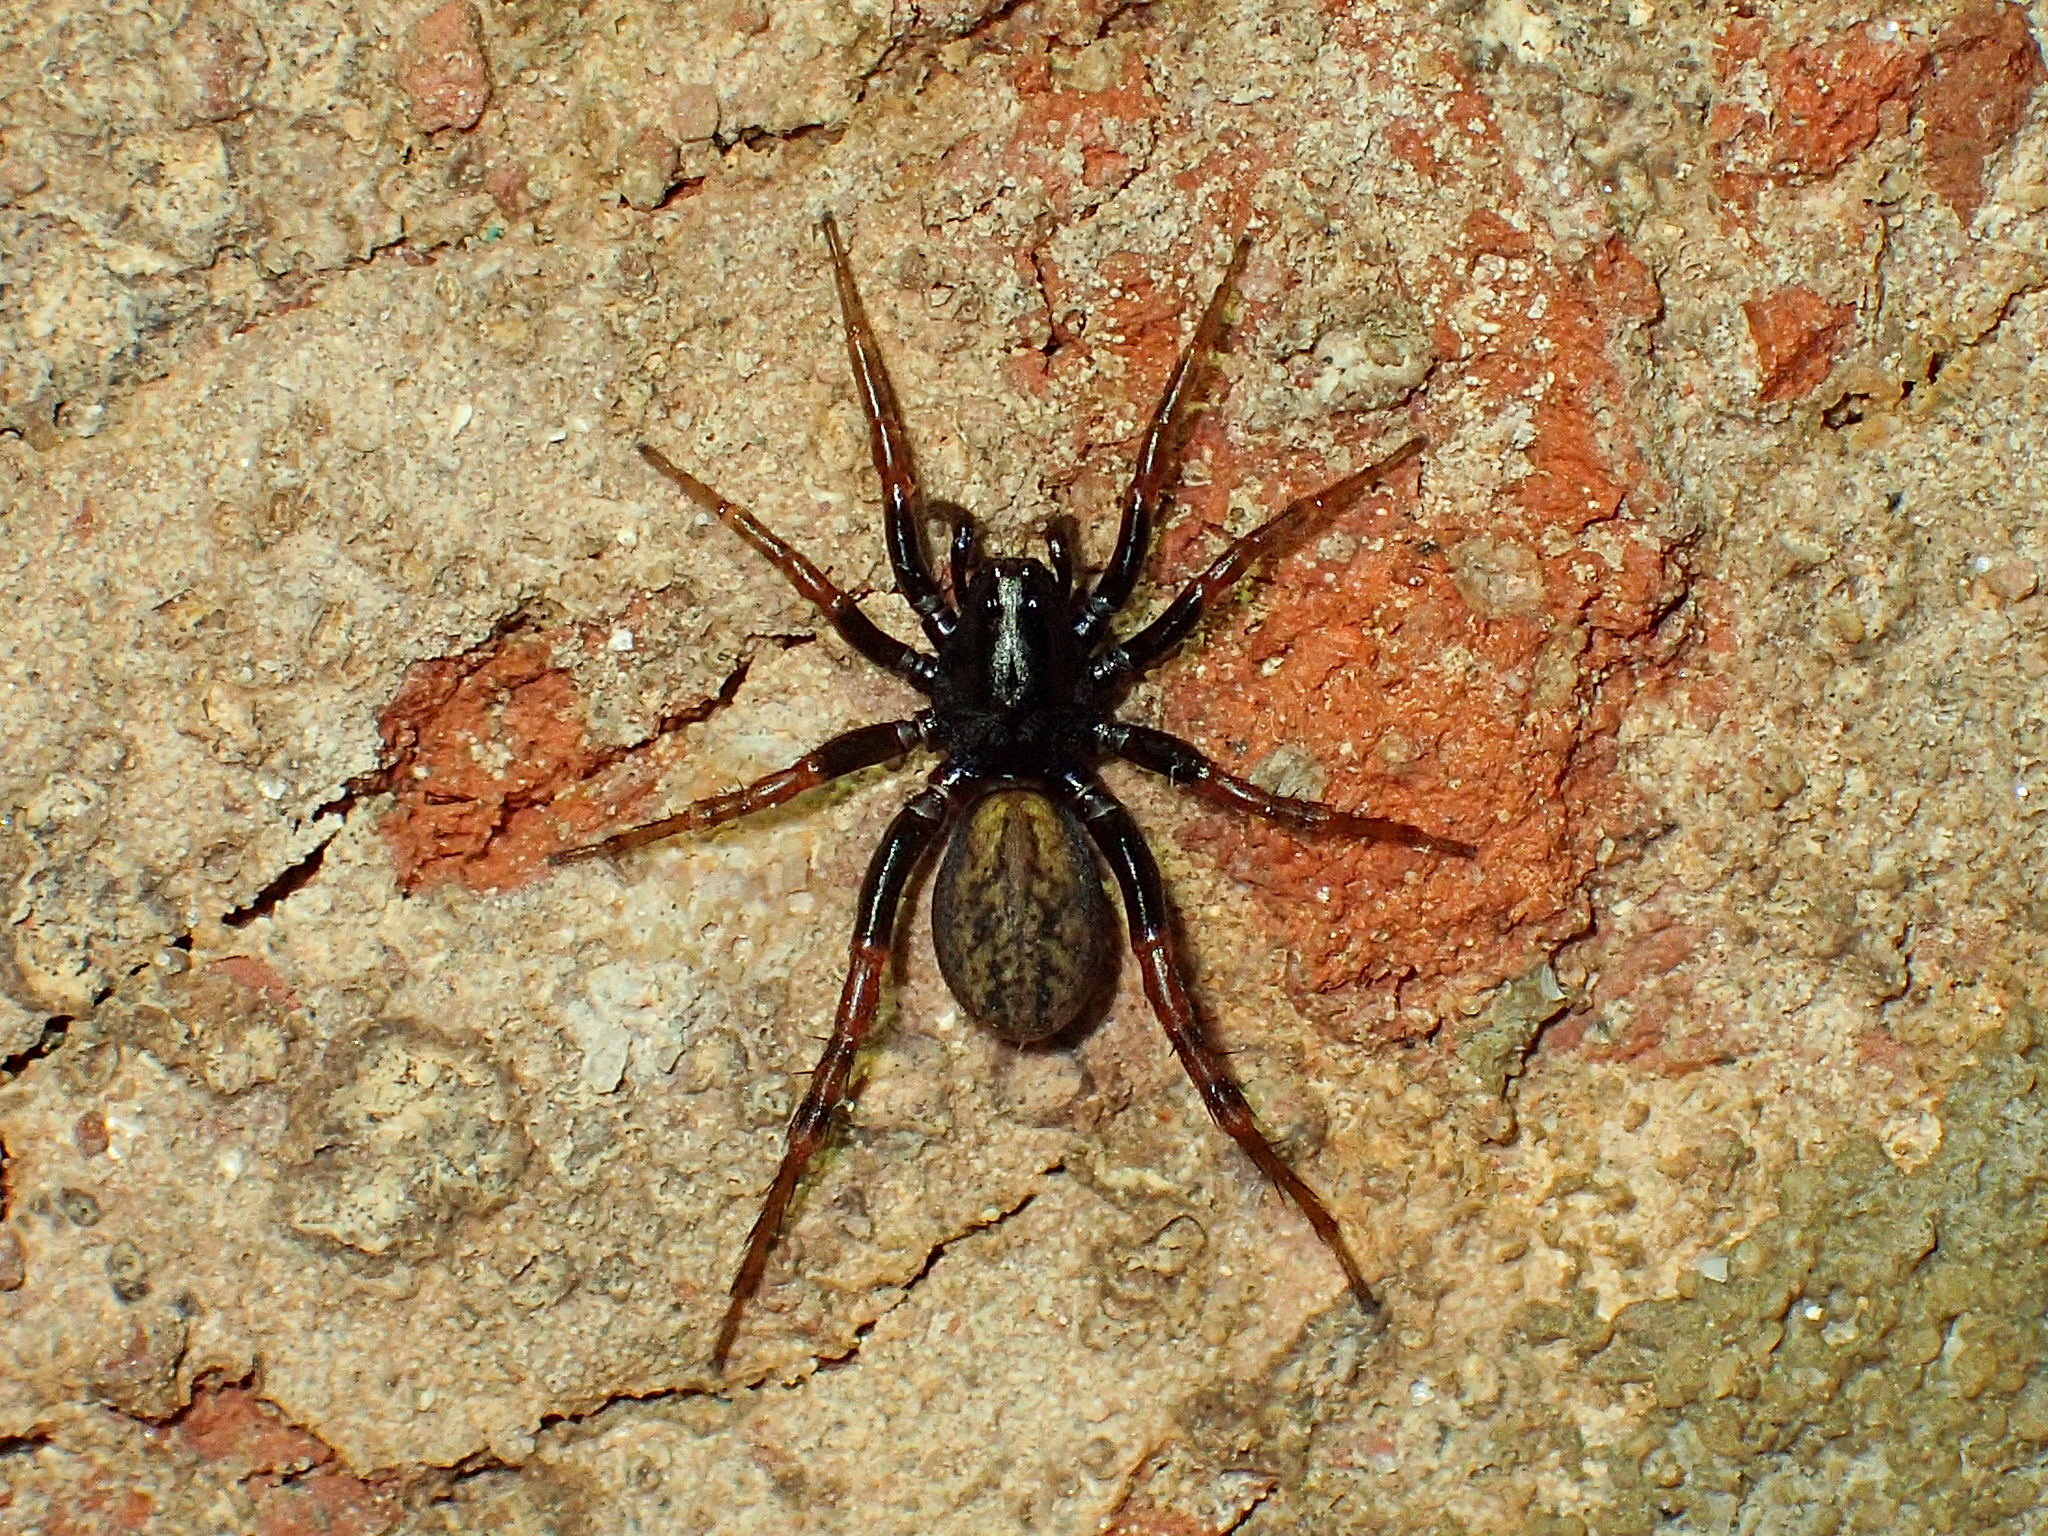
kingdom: Animalia
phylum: Arthropoda
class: Arachnida
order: Araneae
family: Lycosidae
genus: Allocosa
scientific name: Allocosa funerea
